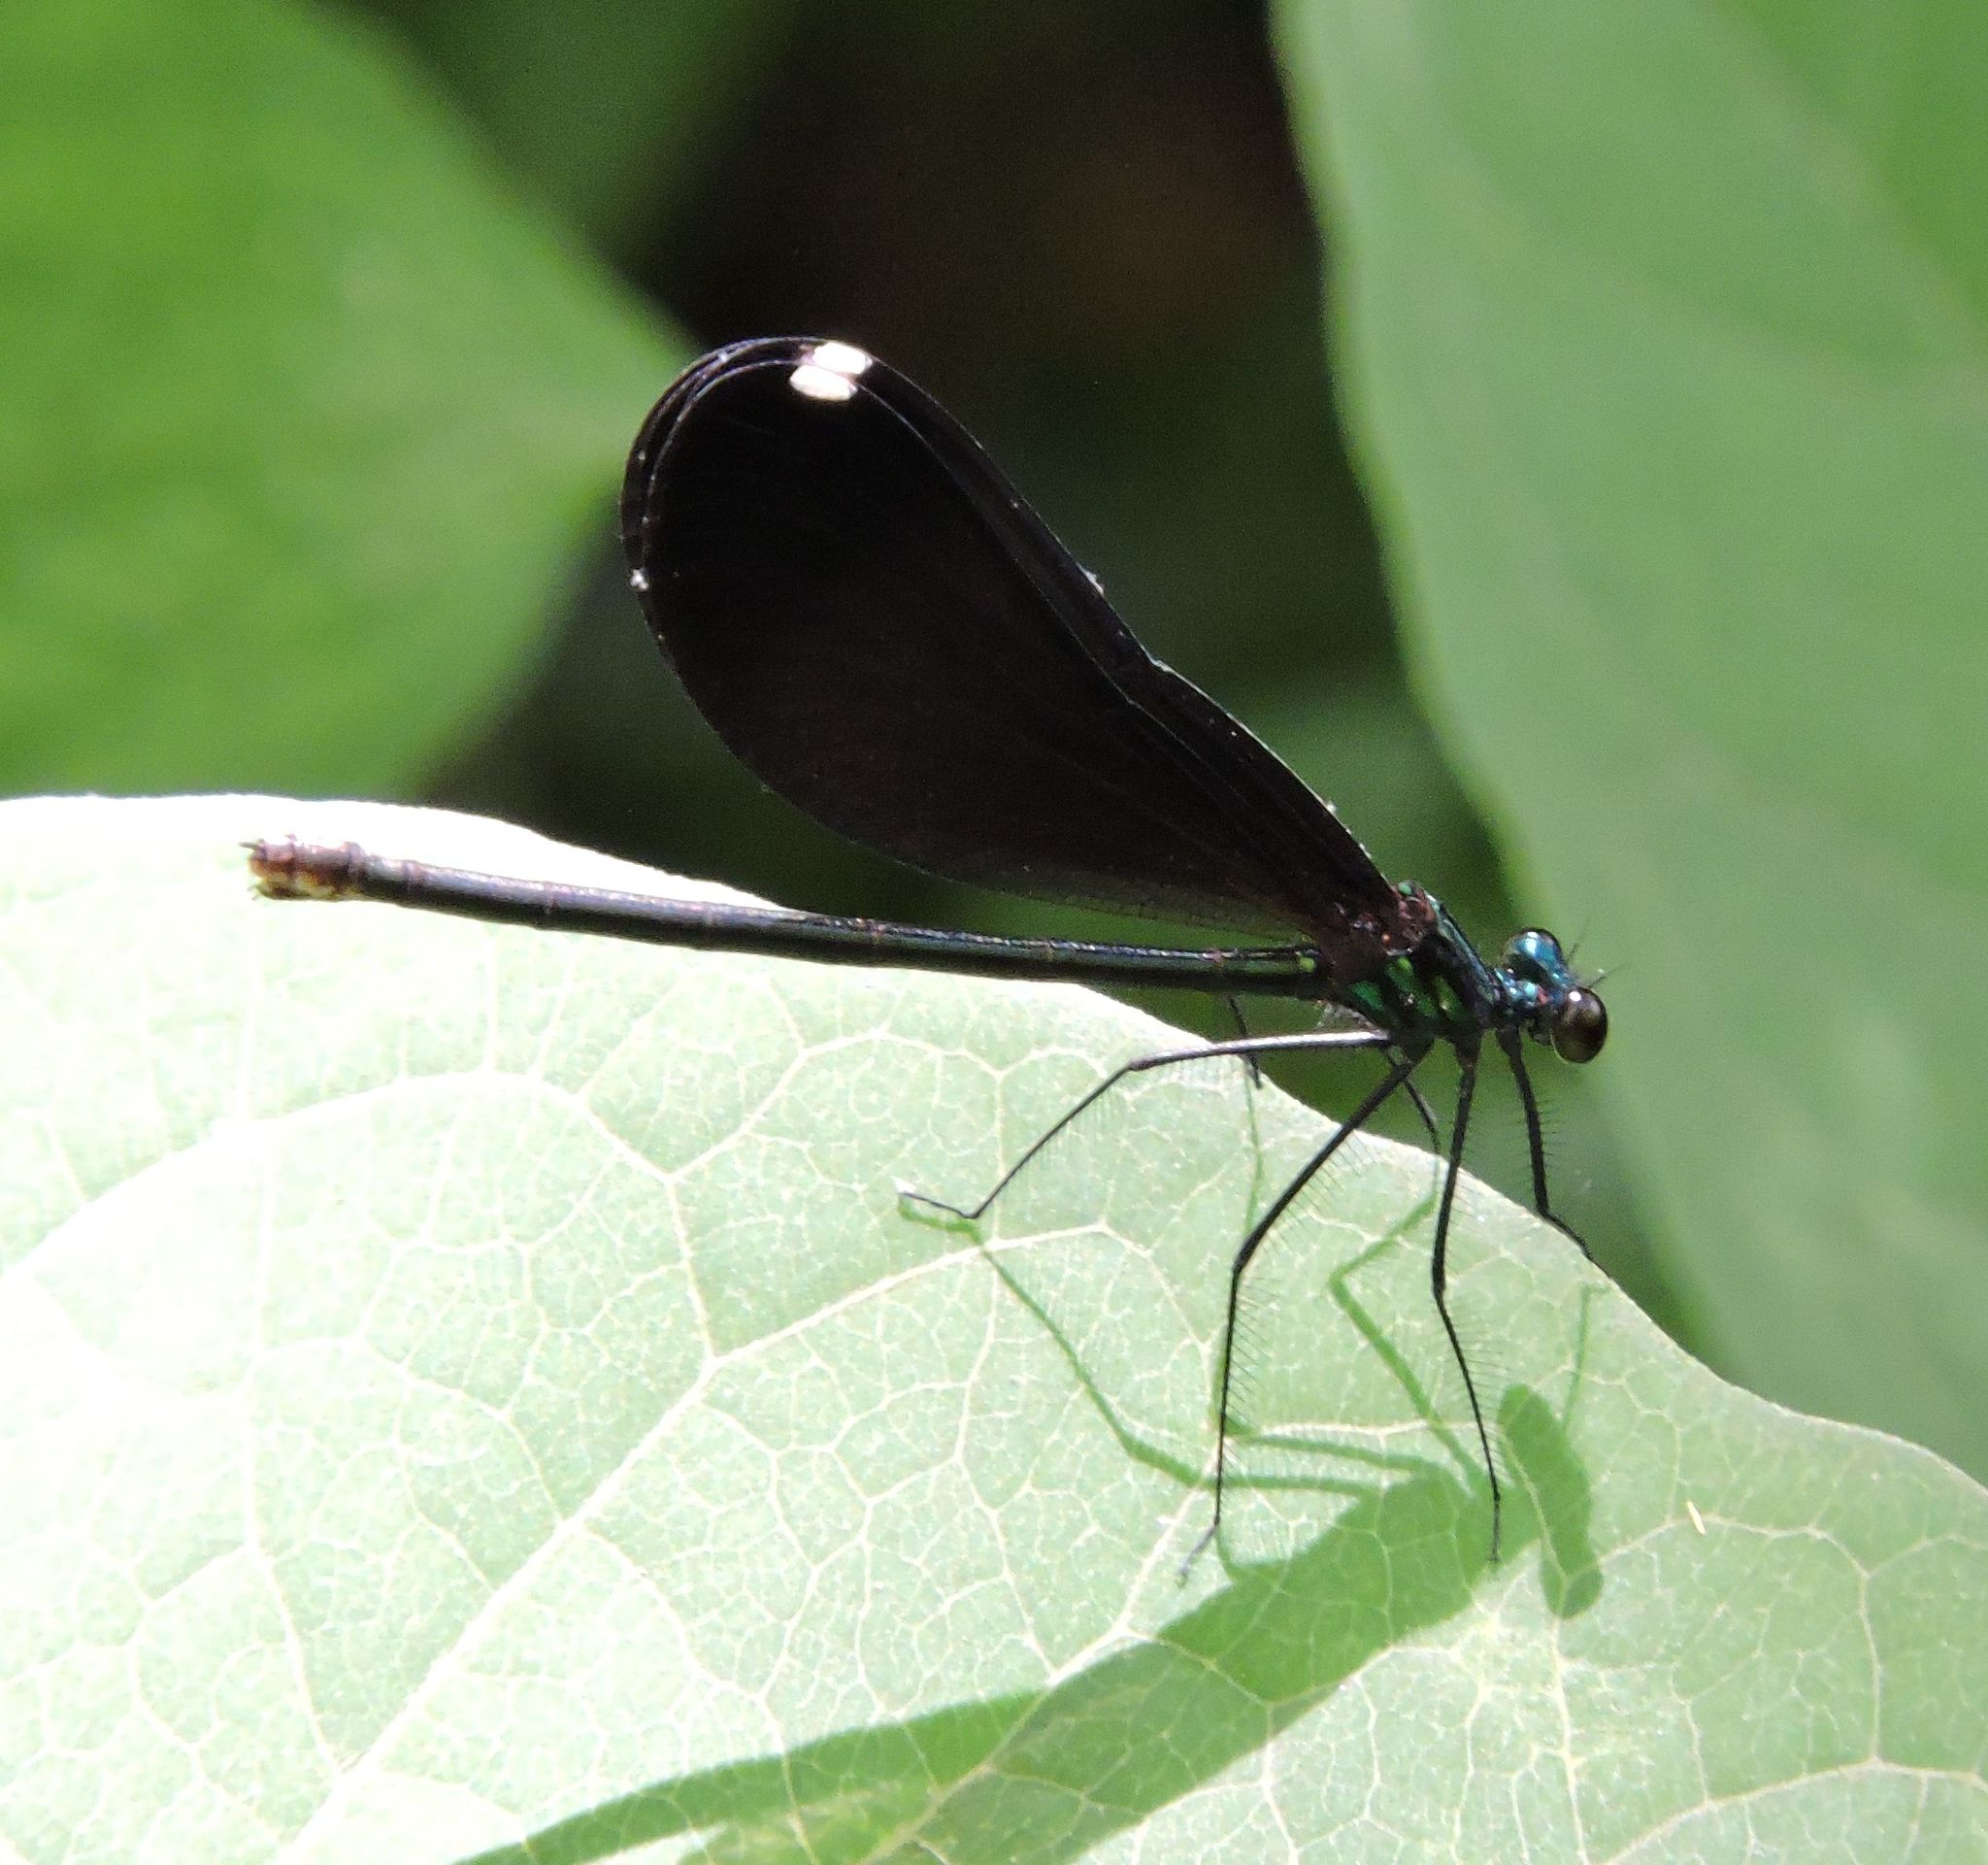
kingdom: Animalia
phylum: Arthropoda
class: Insecta
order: Odonata
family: Calopterygidae
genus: Calopteryx
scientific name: Calopteryx maculata
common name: Ebony jewelwing
